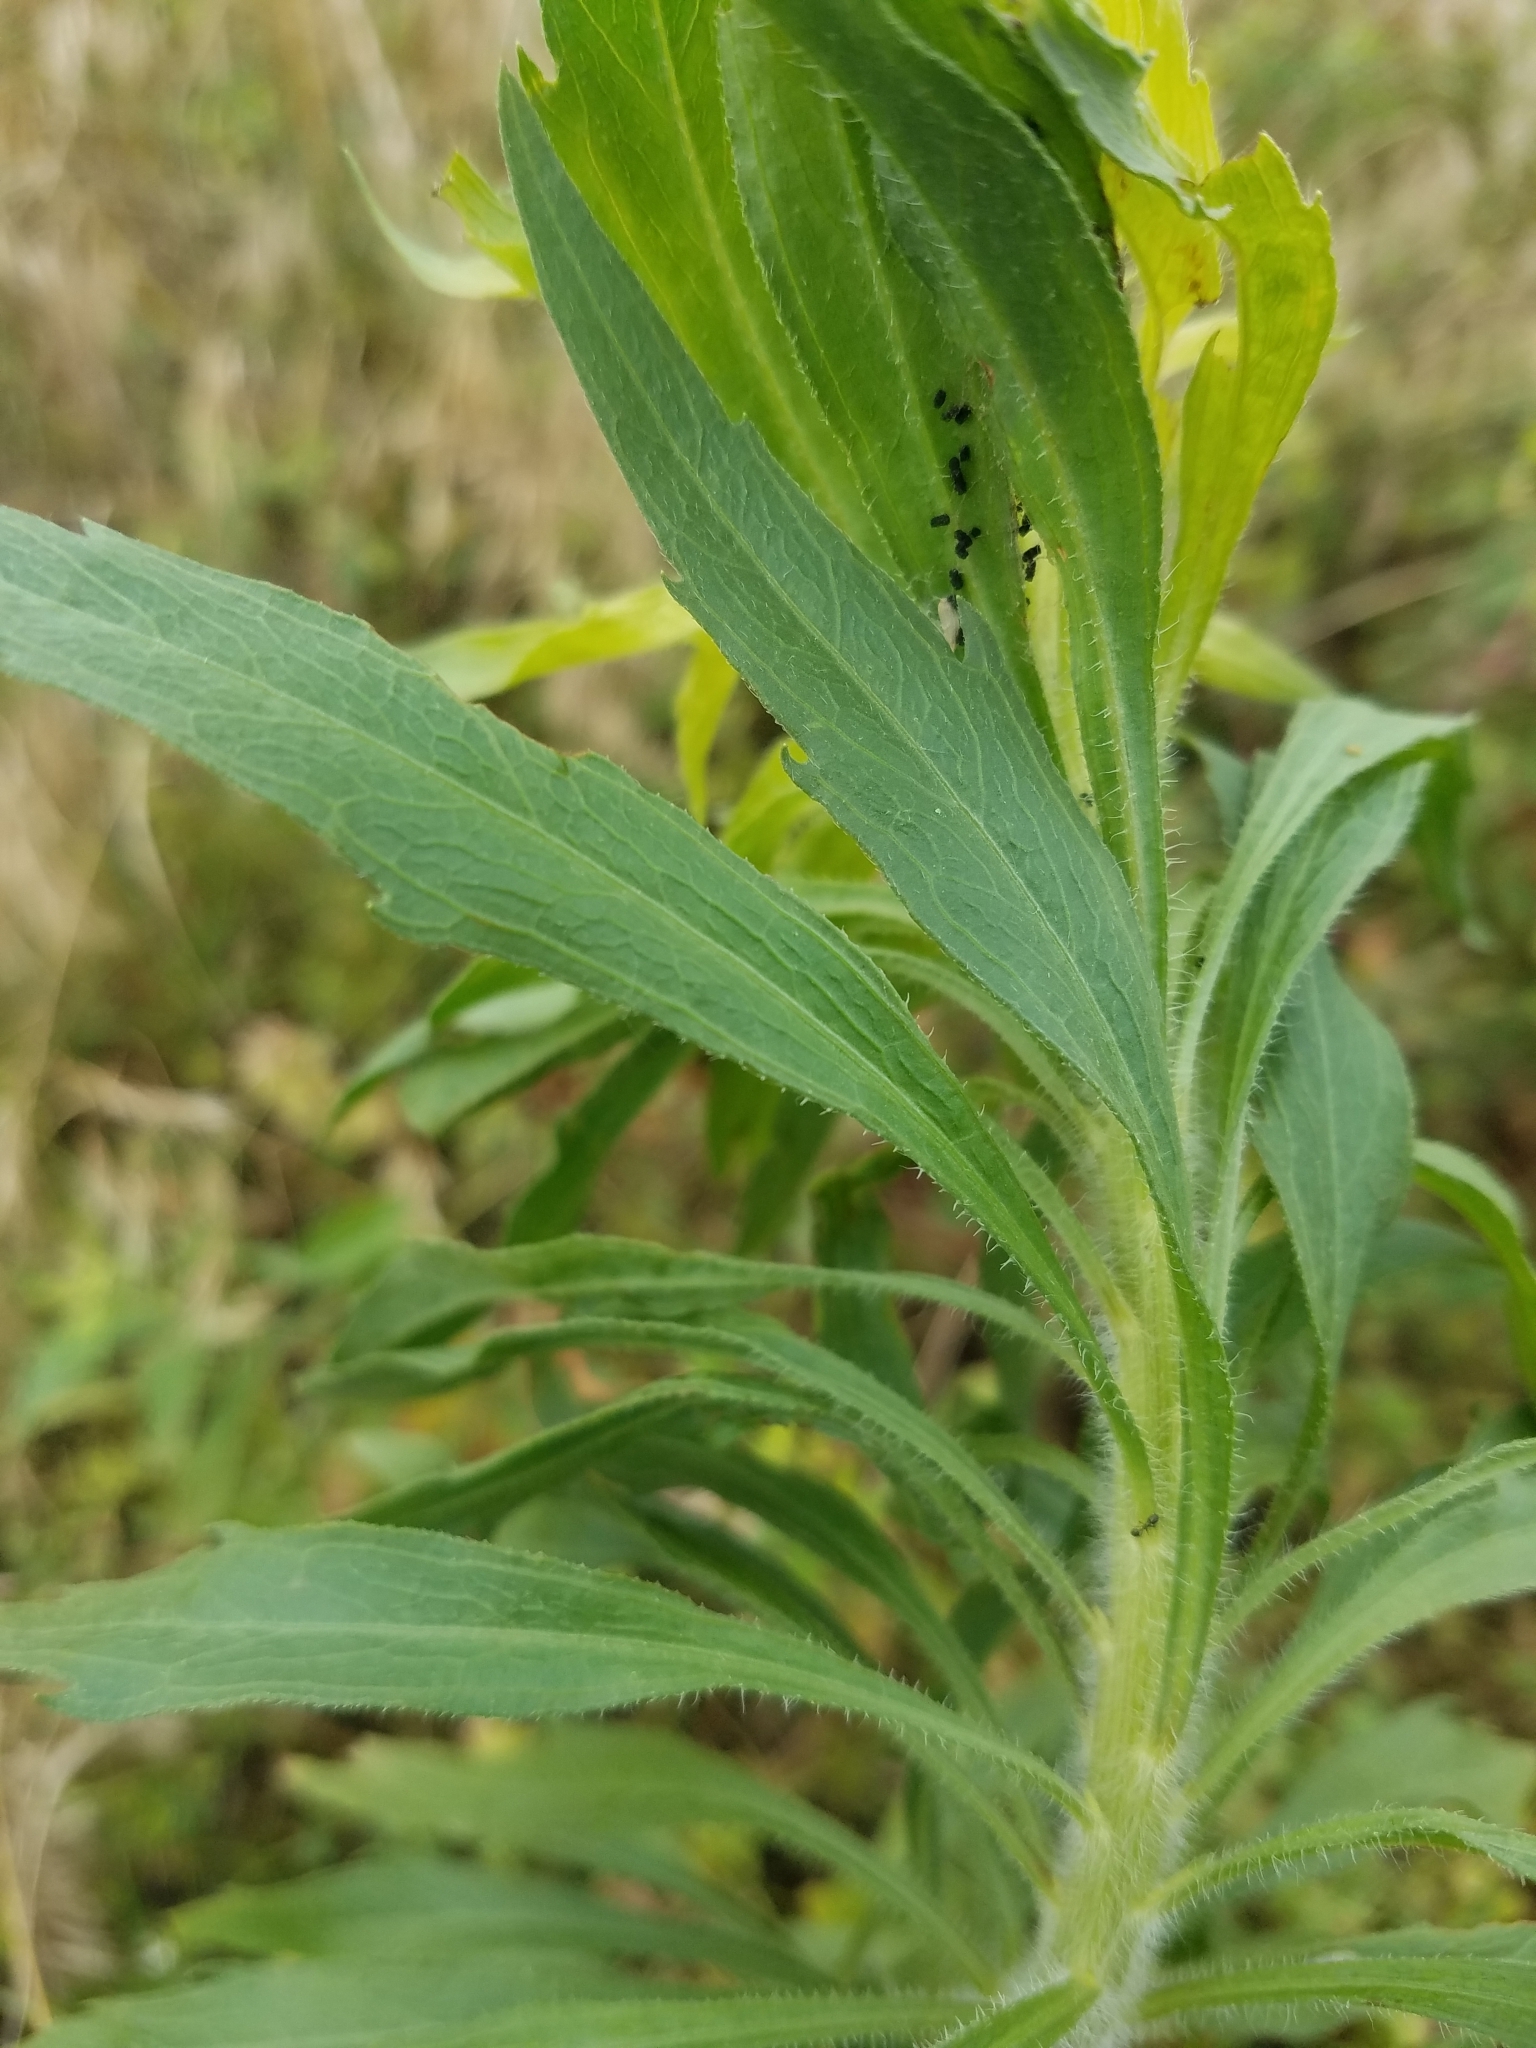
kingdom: Plantae
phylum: Tracheophyta
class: Magnoliopsida
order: Asterales
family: Asteraceae
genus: Erigeron
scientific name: Erigeron canadensis
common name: Canadian fleabane
